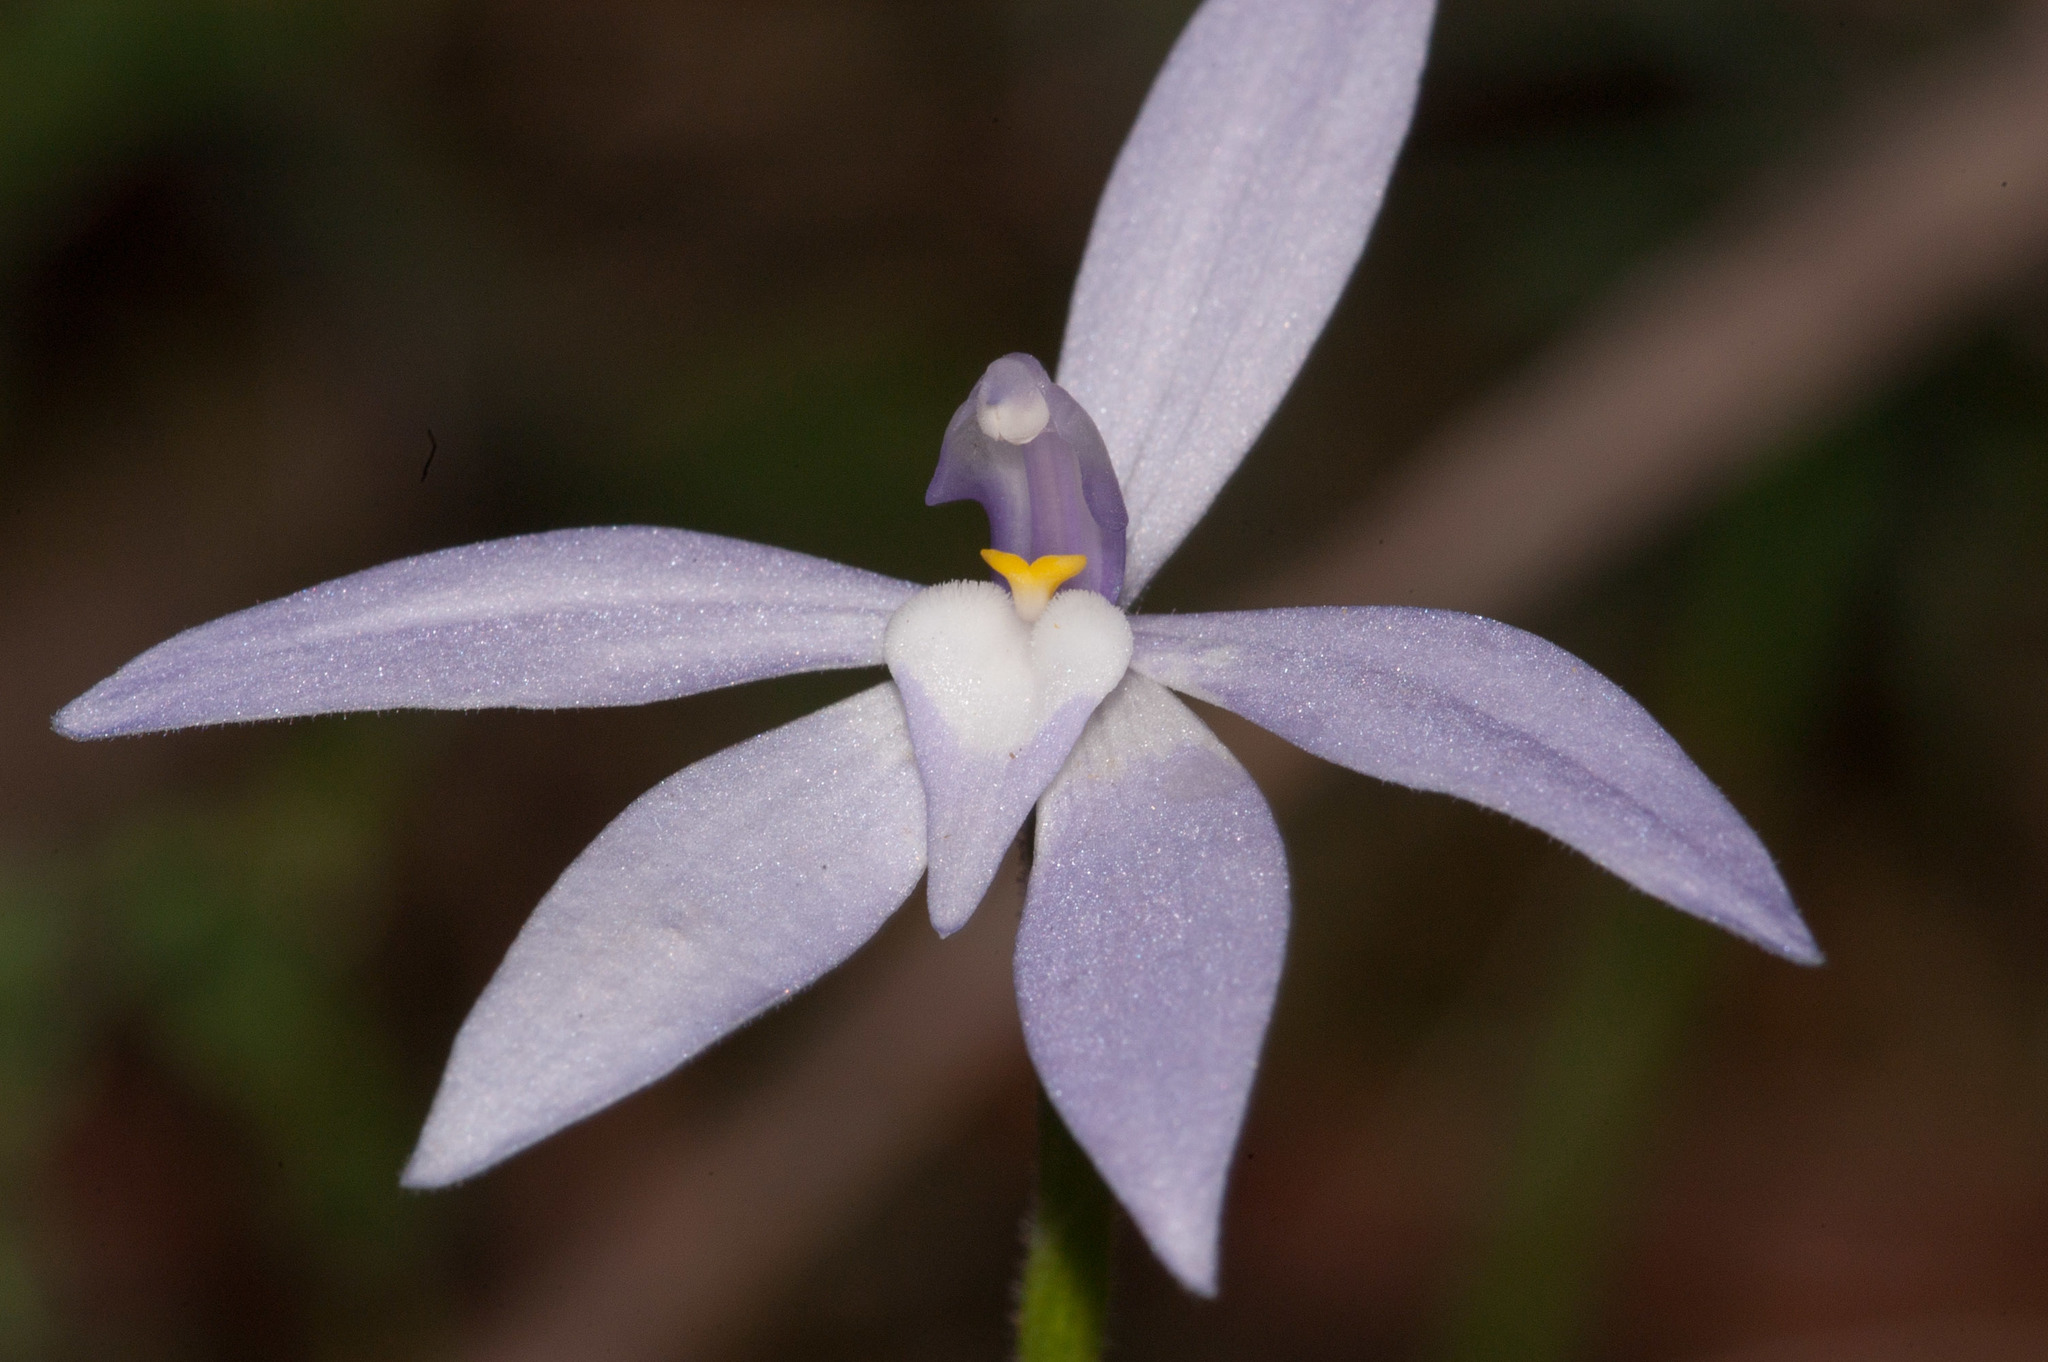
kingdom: Plantae
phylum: Tracheophyta
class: Liliopsida
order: Asparagales
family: Orchidaceae
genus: Caladenia
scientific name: Caladenia major
